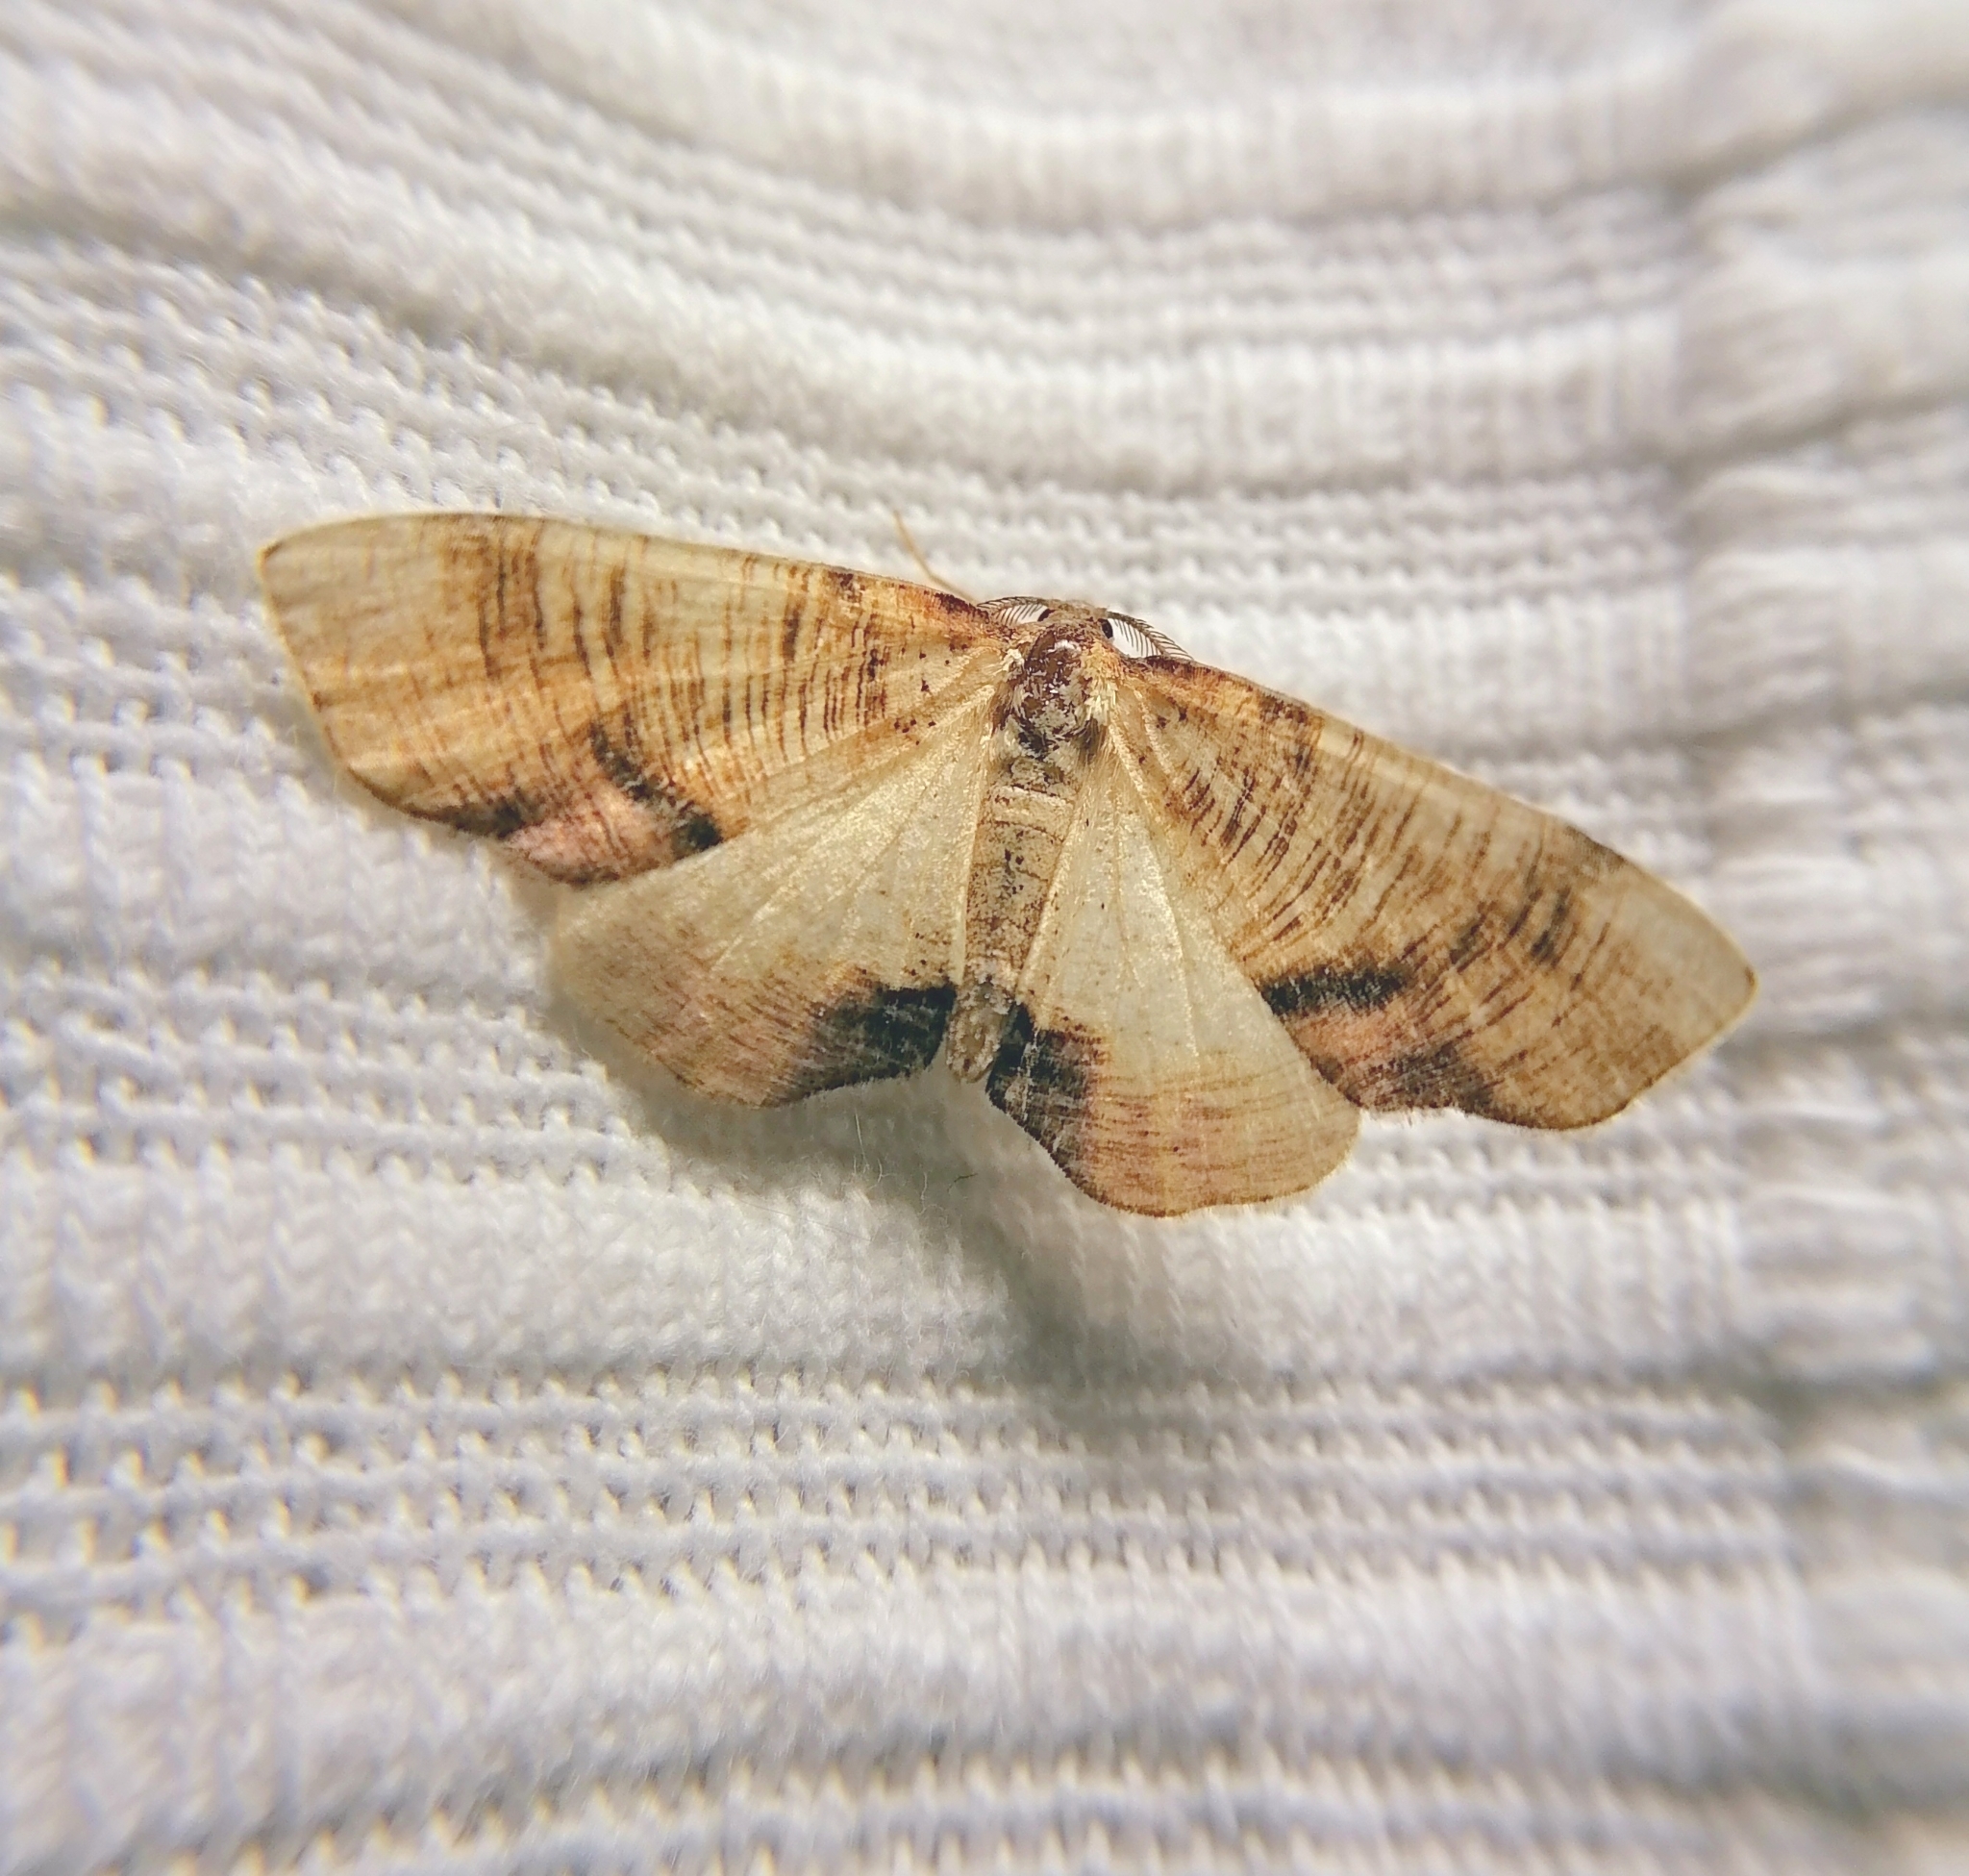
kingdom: Animalia
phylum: Arthropoda
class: Insecta
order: Lepidoptera
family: Geometridae
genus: Plagodis
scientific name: Plagodis dolabraria
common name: Scorched wing
